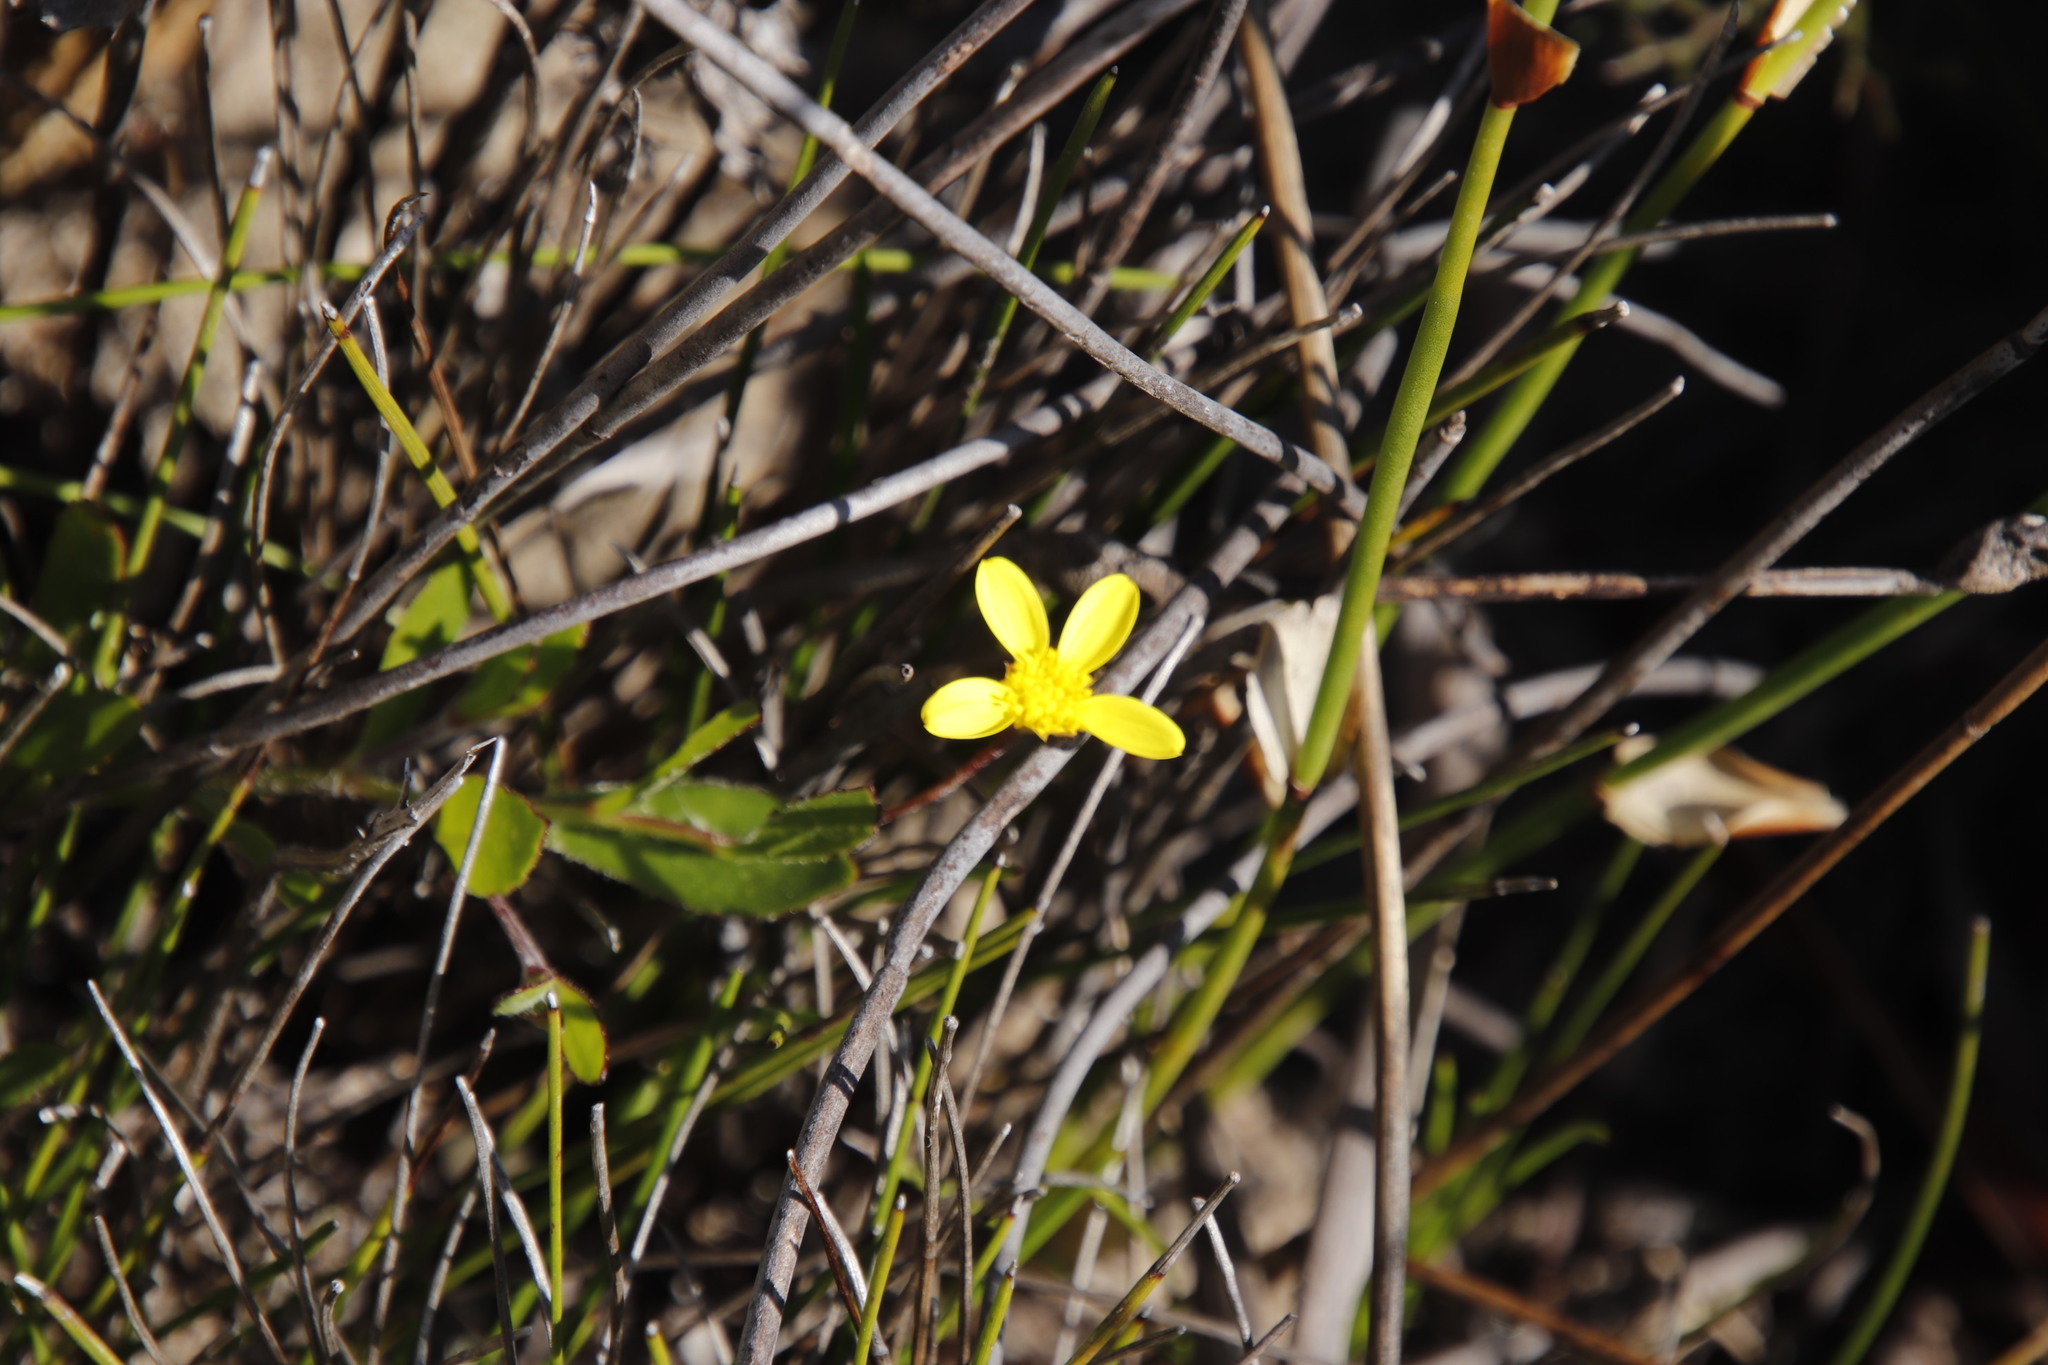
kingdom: Plantae
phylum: Tracheophyta
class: Magnoliopsida
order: Asterales
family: Asteraceae
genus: Osteospermum
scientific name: Osteospermum ciliatum
